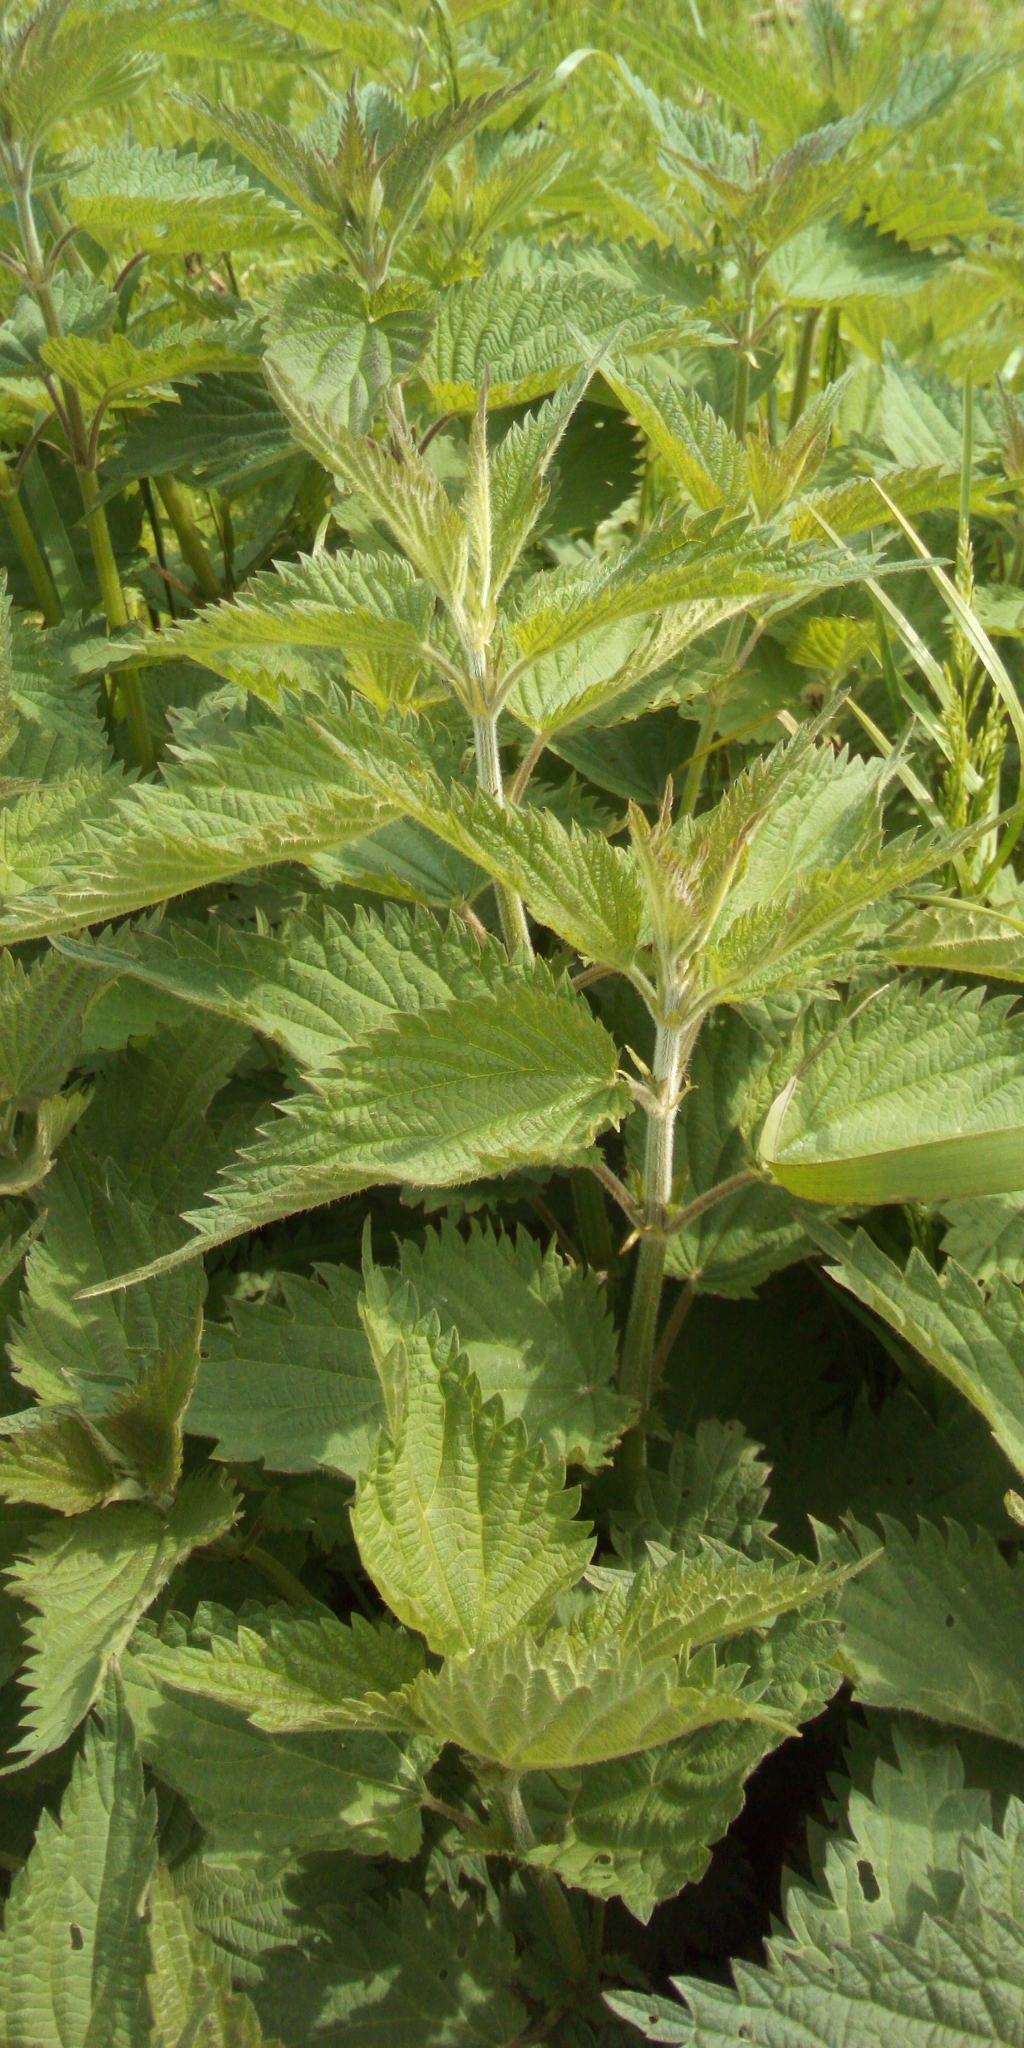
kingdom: Plantae
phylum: Tracheophyta
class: Magnoliopsida
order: Rosales
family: Urticaceae
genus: Urtica
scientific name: Urtica dioica
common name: Common nettle
